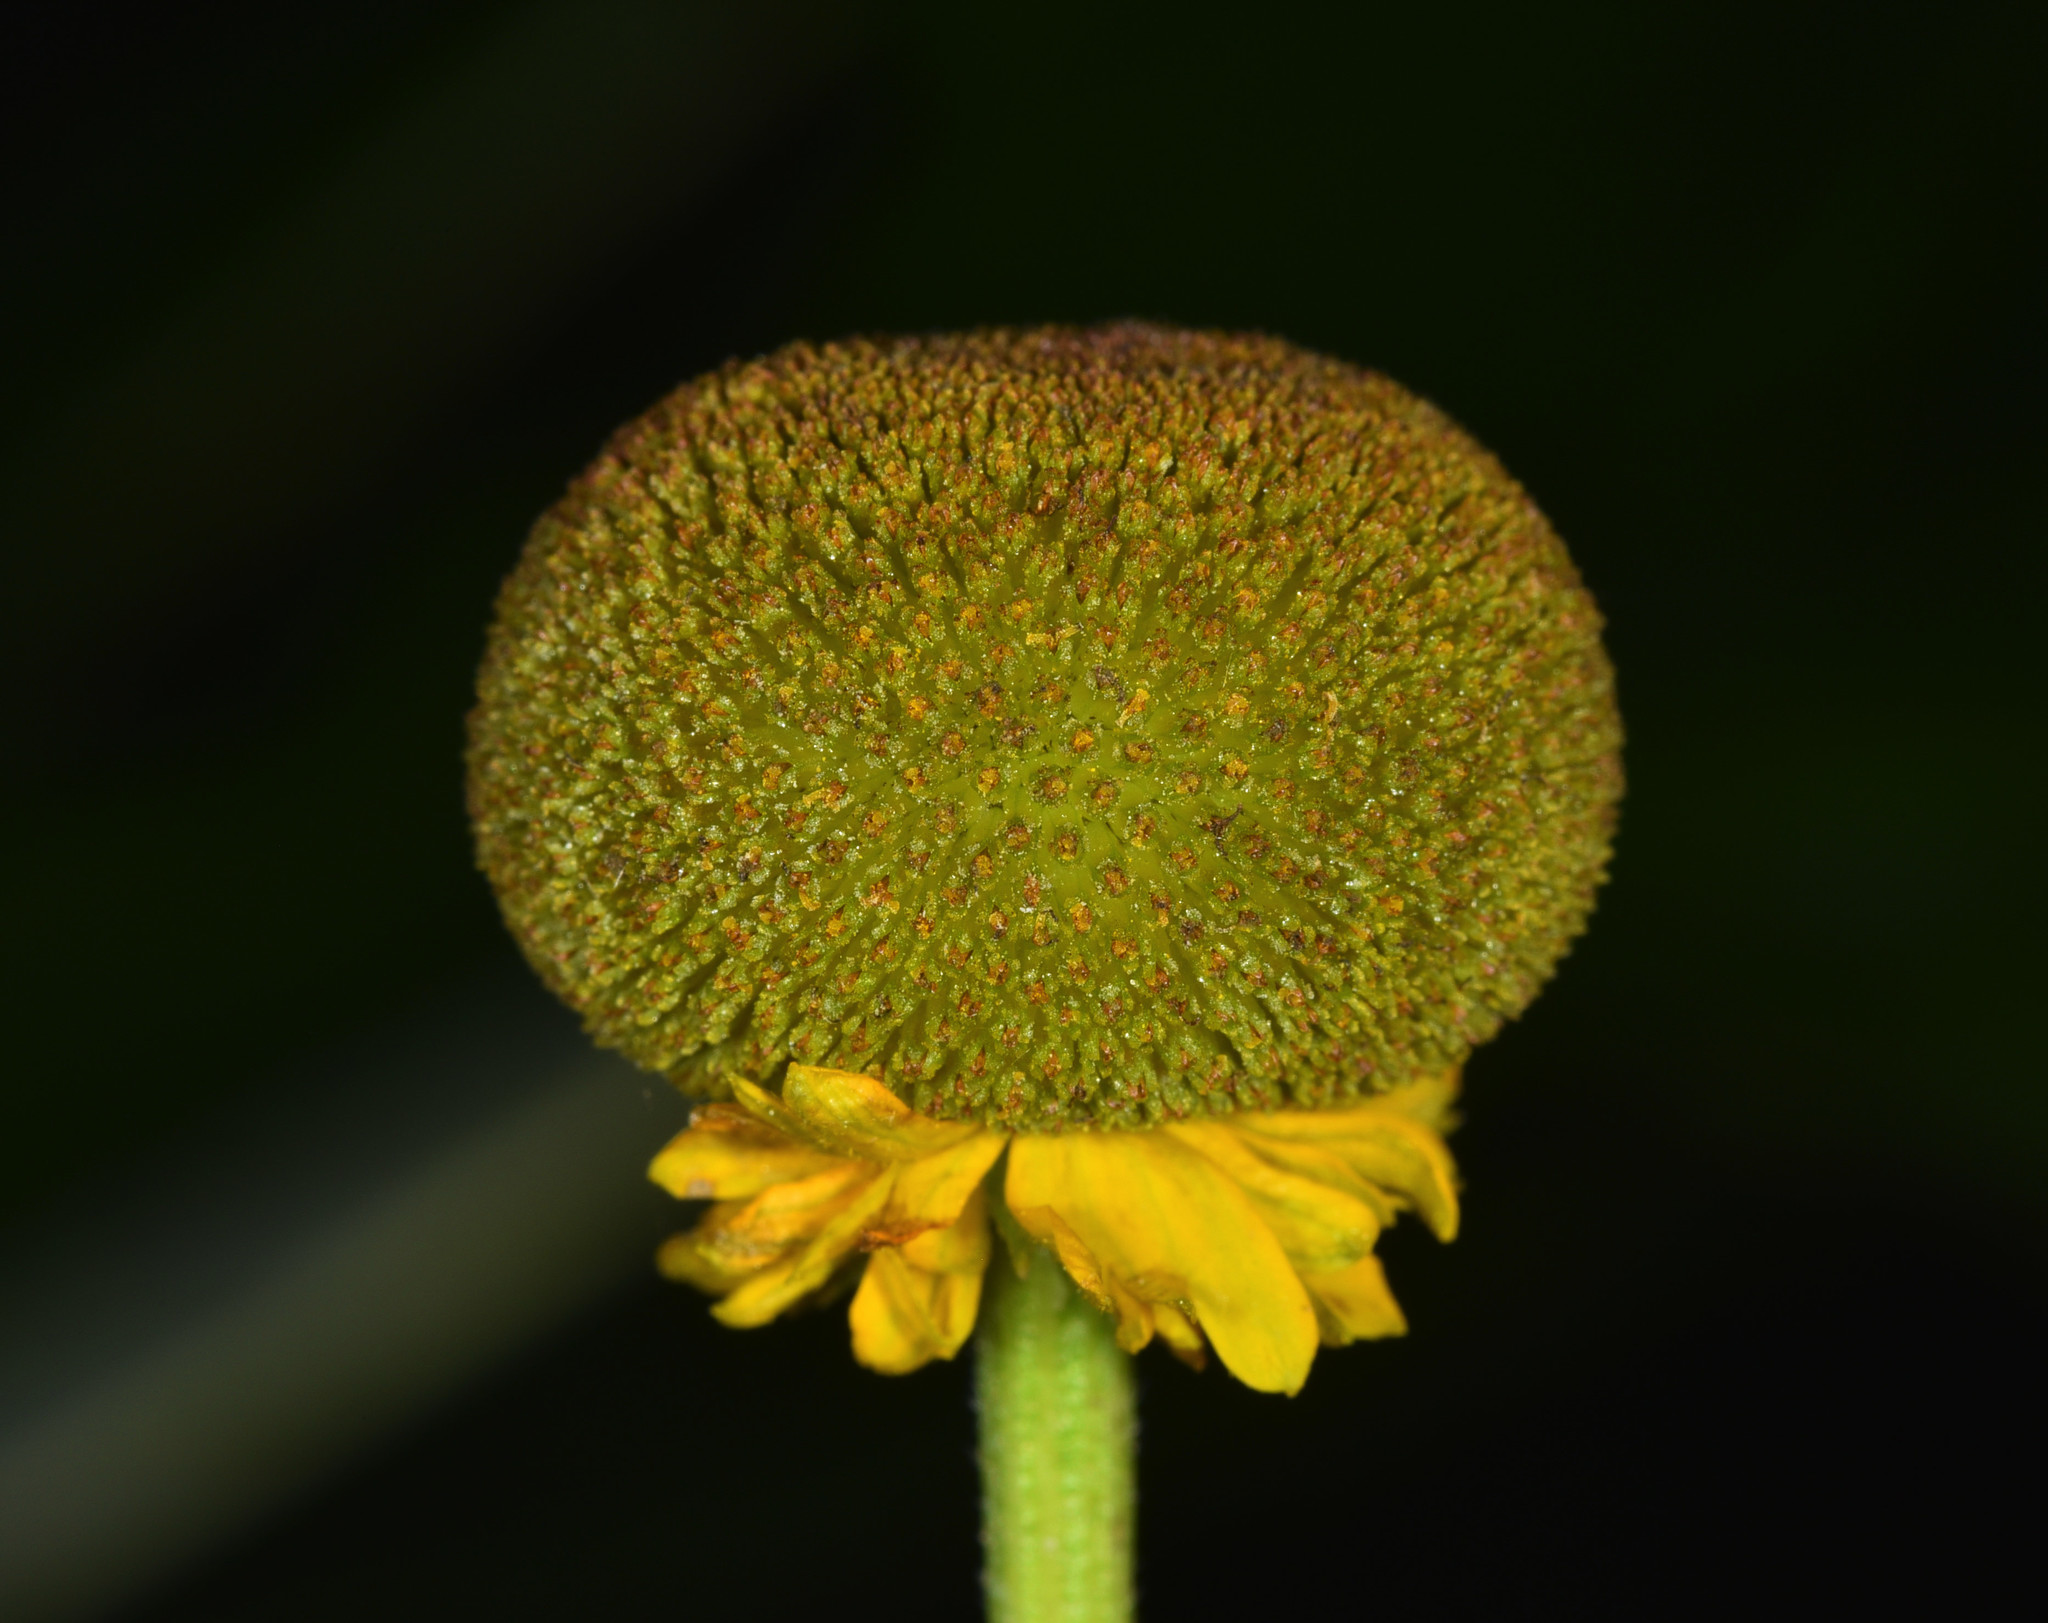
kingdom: Plantae
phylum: Tracheophyta
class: Magnoliopsida
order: Asterales
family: Asteraceae
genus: Helenium
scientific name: Helenium puberulum
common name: Sneezewort
